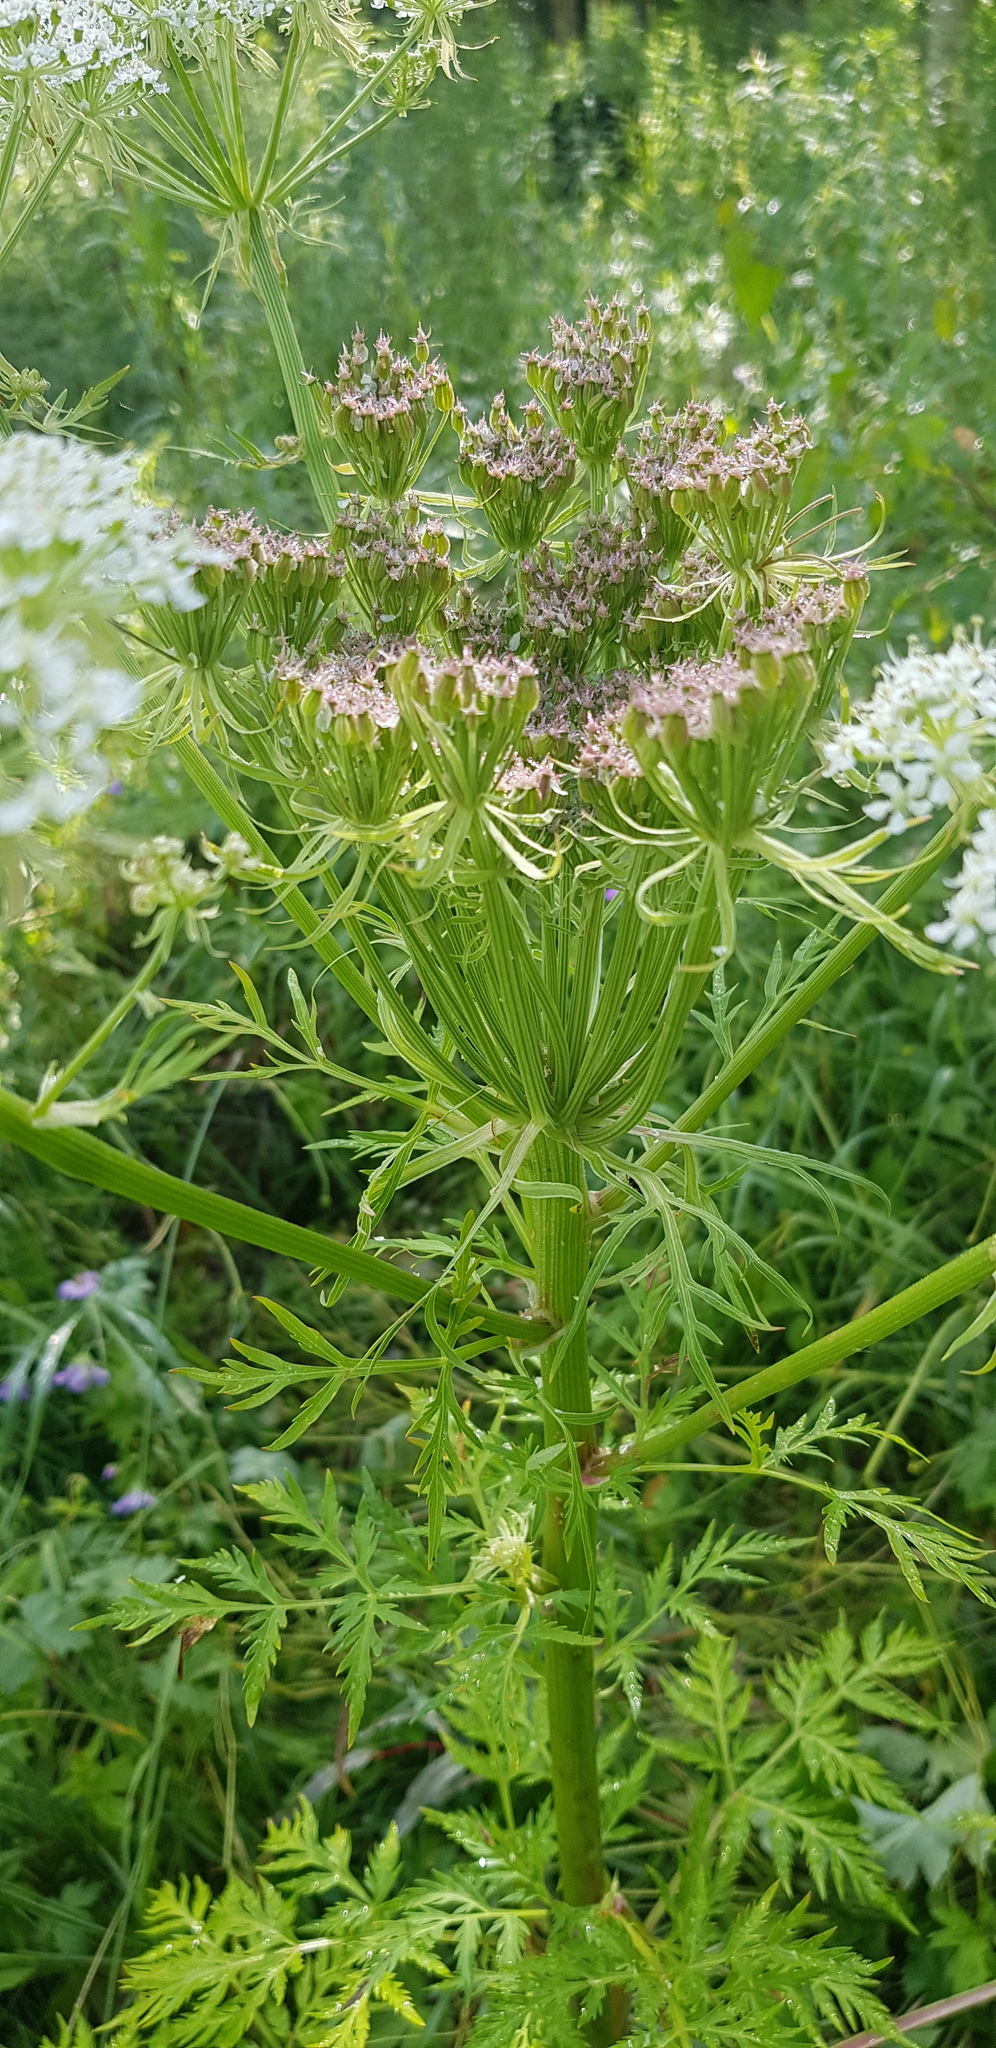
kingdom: Plantae
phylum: Tracheophyta
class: Magnoliopsida
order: Apiales
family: Apiaceae
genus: Pleurospermum
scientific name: Pleurospermum uralense
